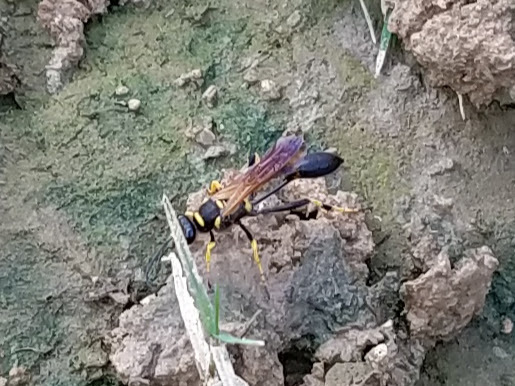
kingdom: Animalia
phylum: Arthropoda
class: Insecta
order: Hymenoptera
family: Sphecidae
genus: Sceliphron
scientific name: Sceliphron caementarium
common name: Mud dauber
